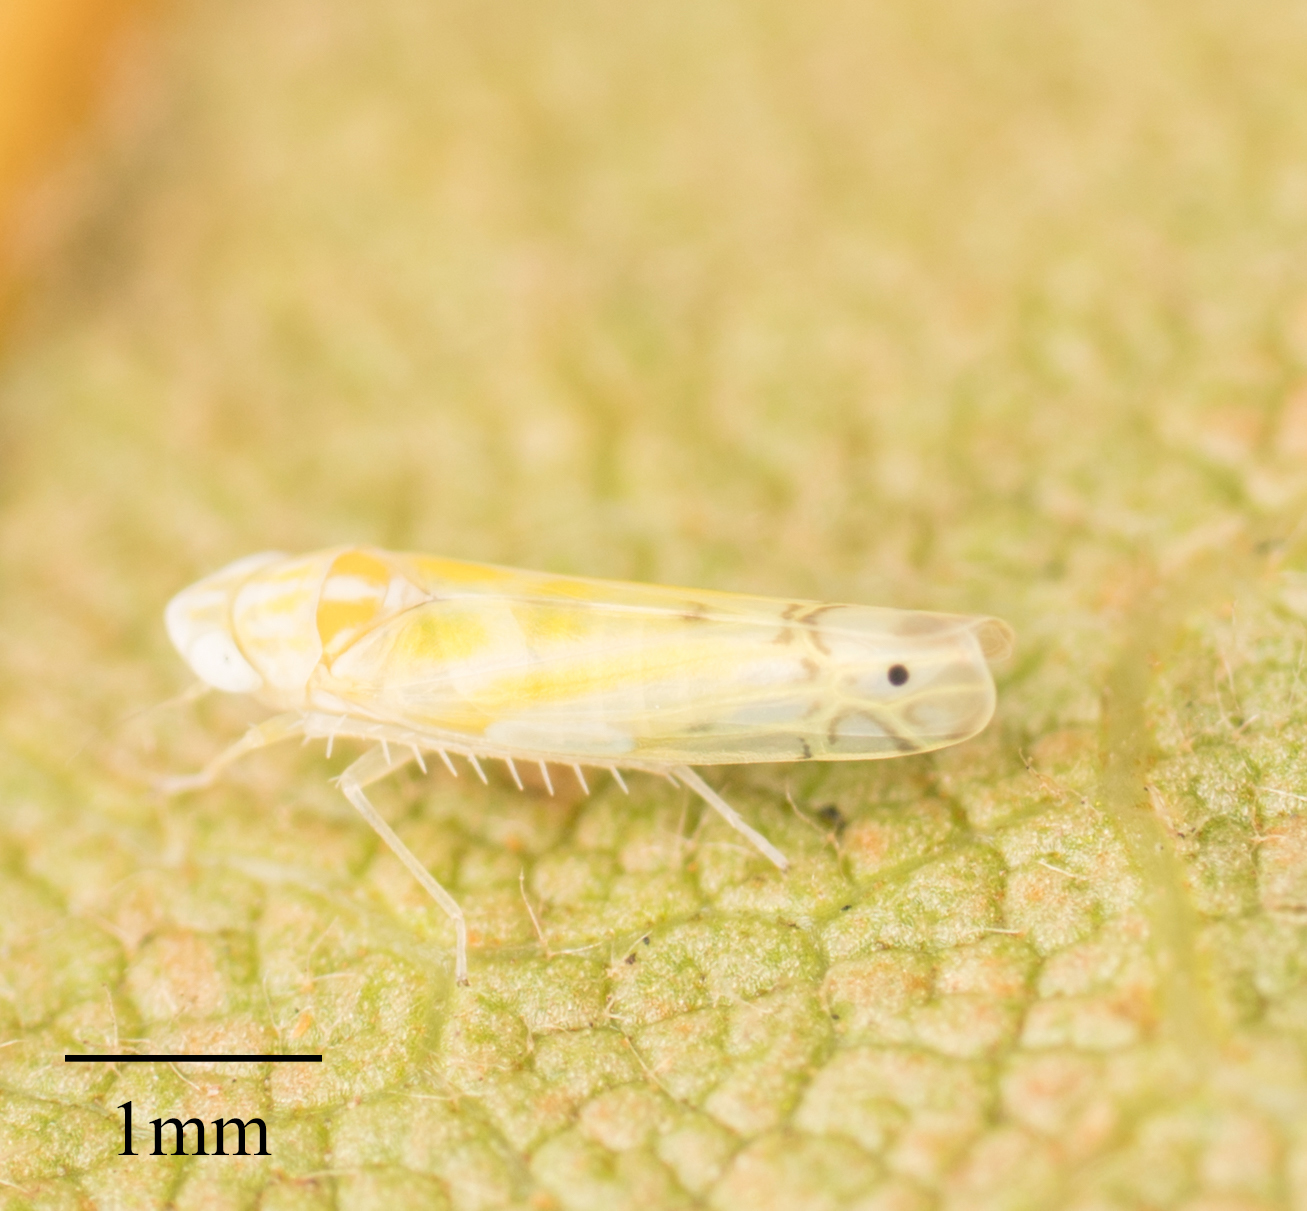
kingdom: Animalia
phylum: Arthropoda
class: Insecta
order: Hemiptera
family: Cicadellidae
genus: Alconeura
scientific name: Alconeura quadrimaculata
